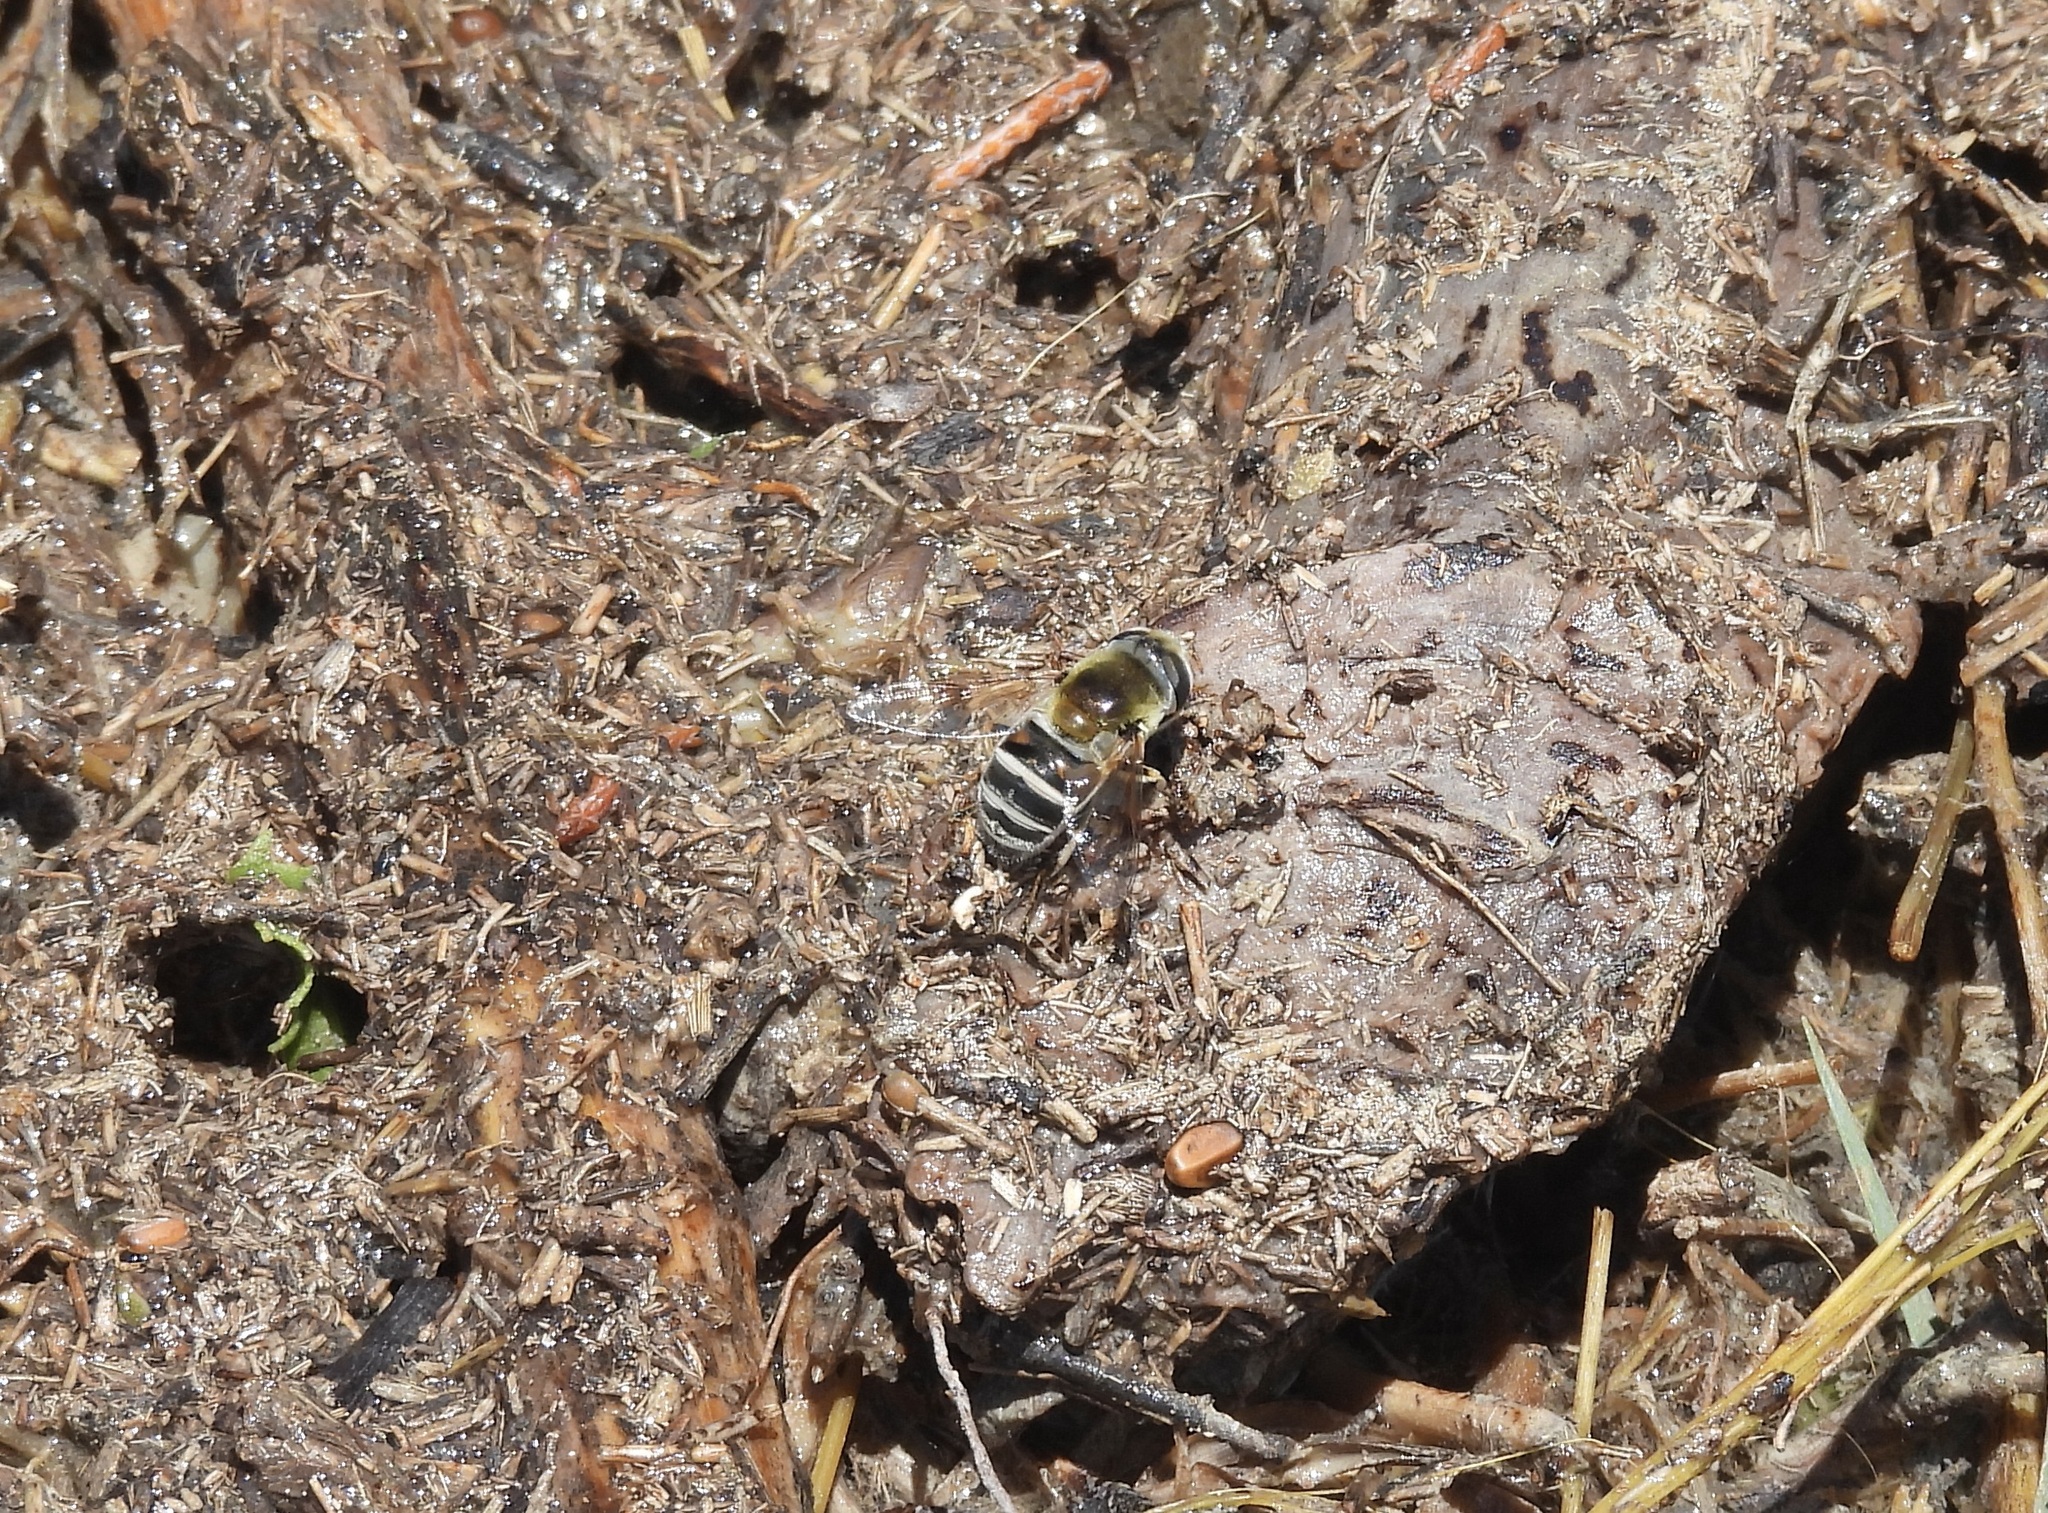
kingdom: Animalia
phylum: Arthropoda
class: Insecta
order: Diptera
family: Syrphidae
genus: Eristalis
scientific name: Eristalis stipator
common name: Yellow-shouldered drone fly
